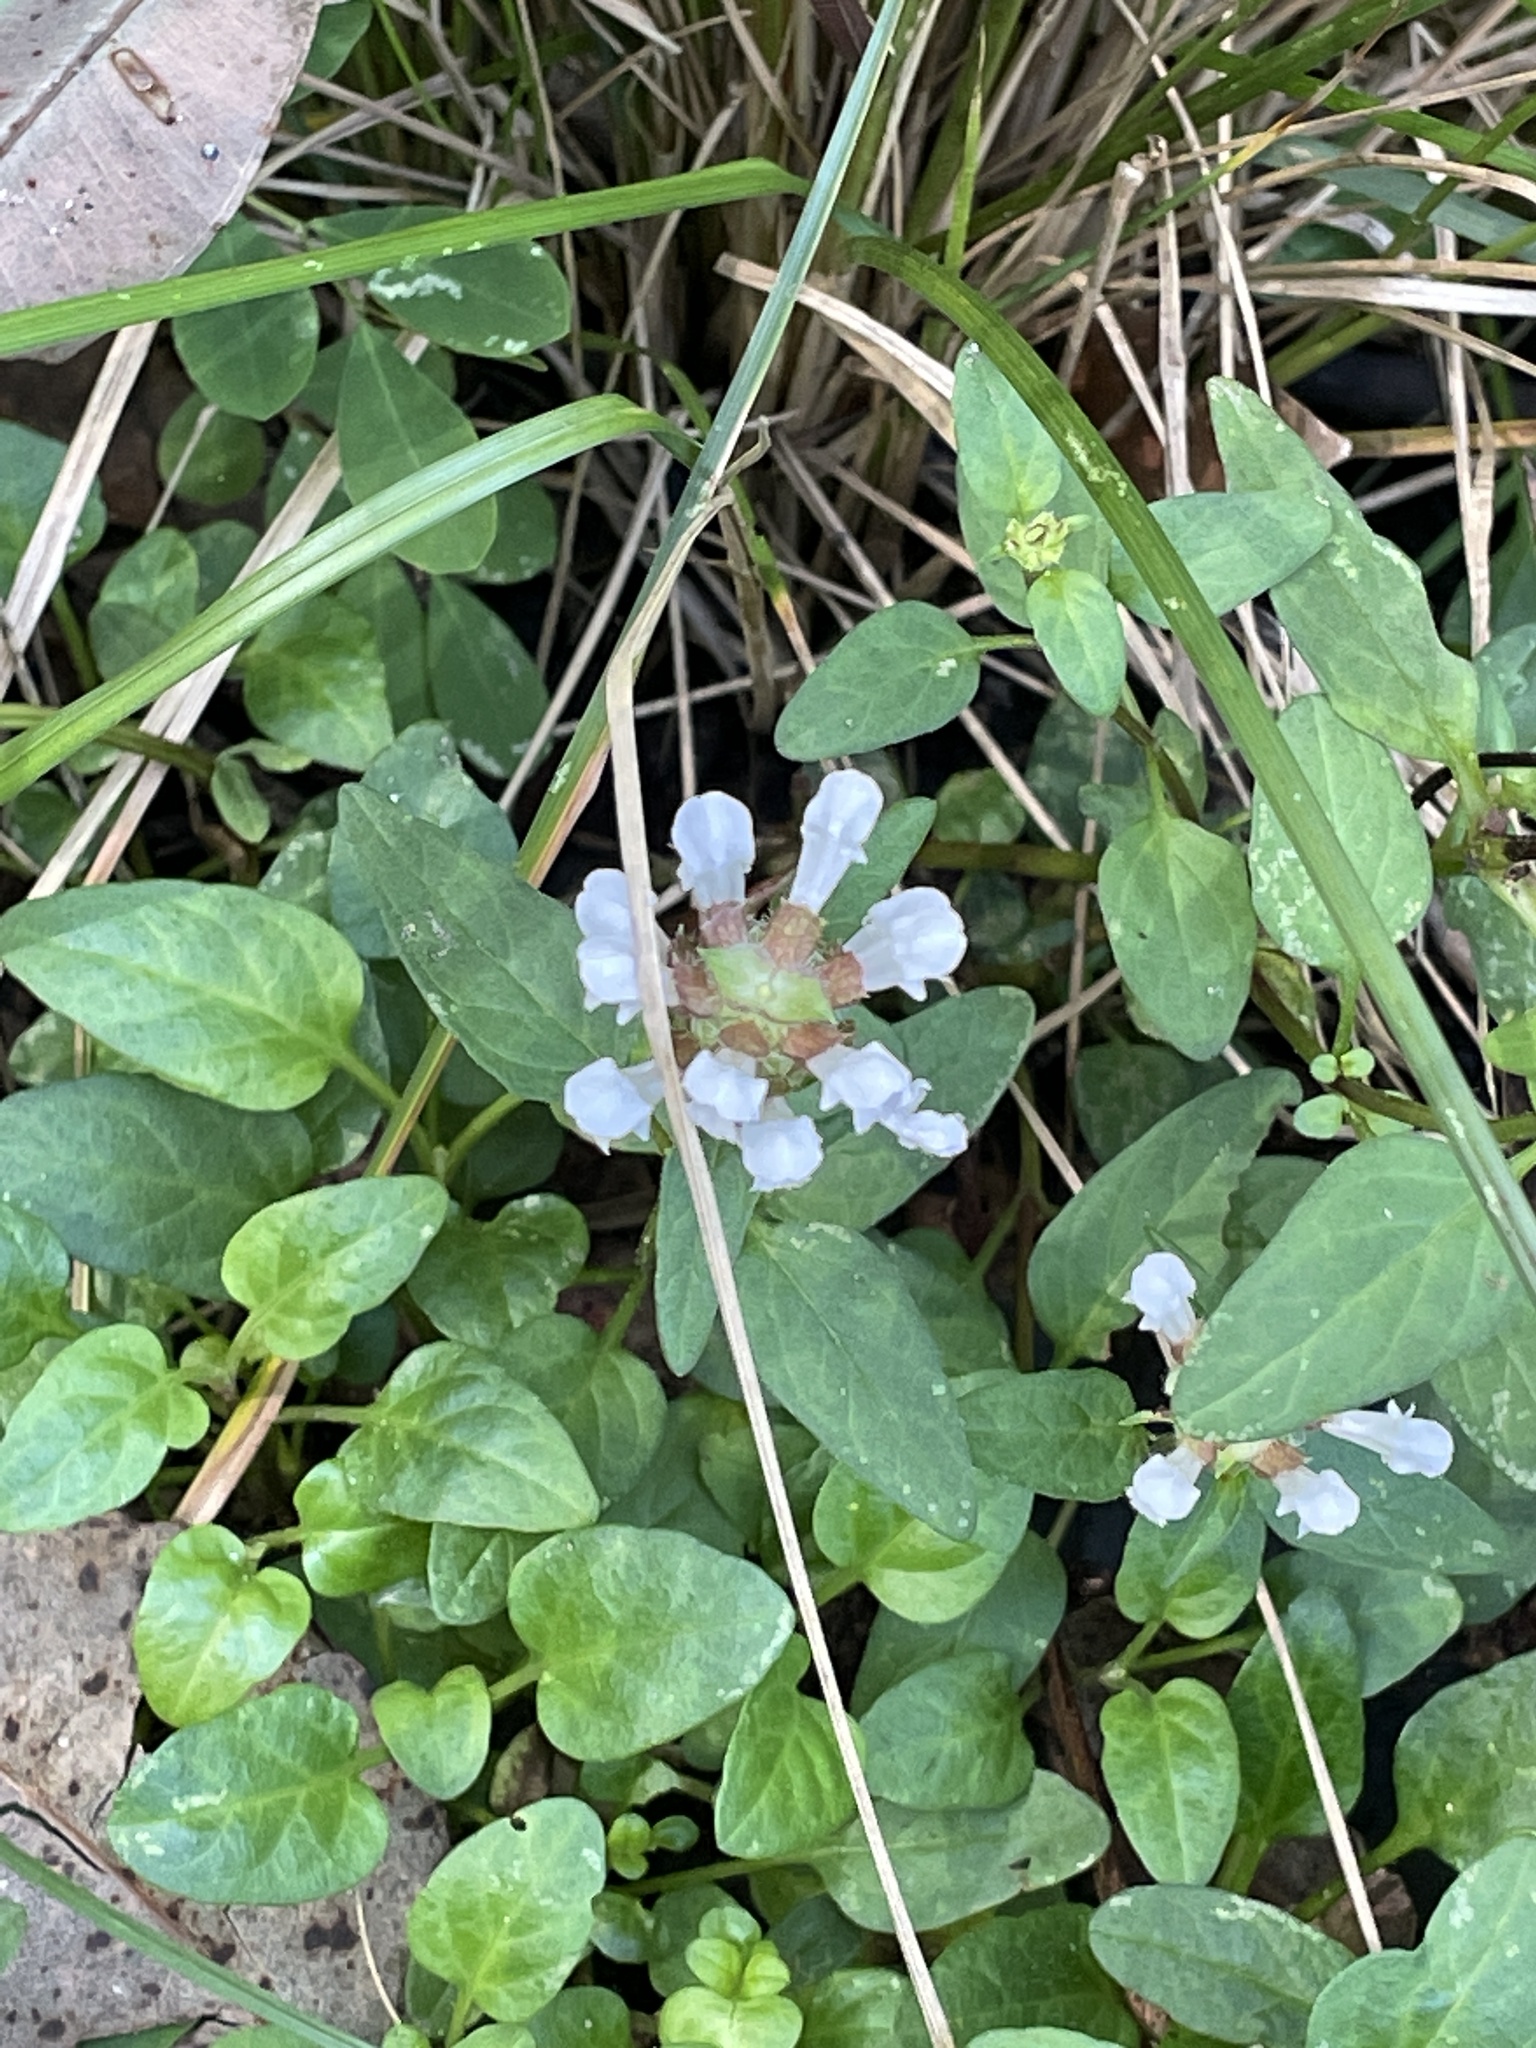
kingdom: Plantae
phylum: Tracheophyta
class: Magnoliopsida
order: Lamiales
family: Lamiaceae
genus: Prunella
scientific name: Prunella vulgaris
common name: Heal-all
